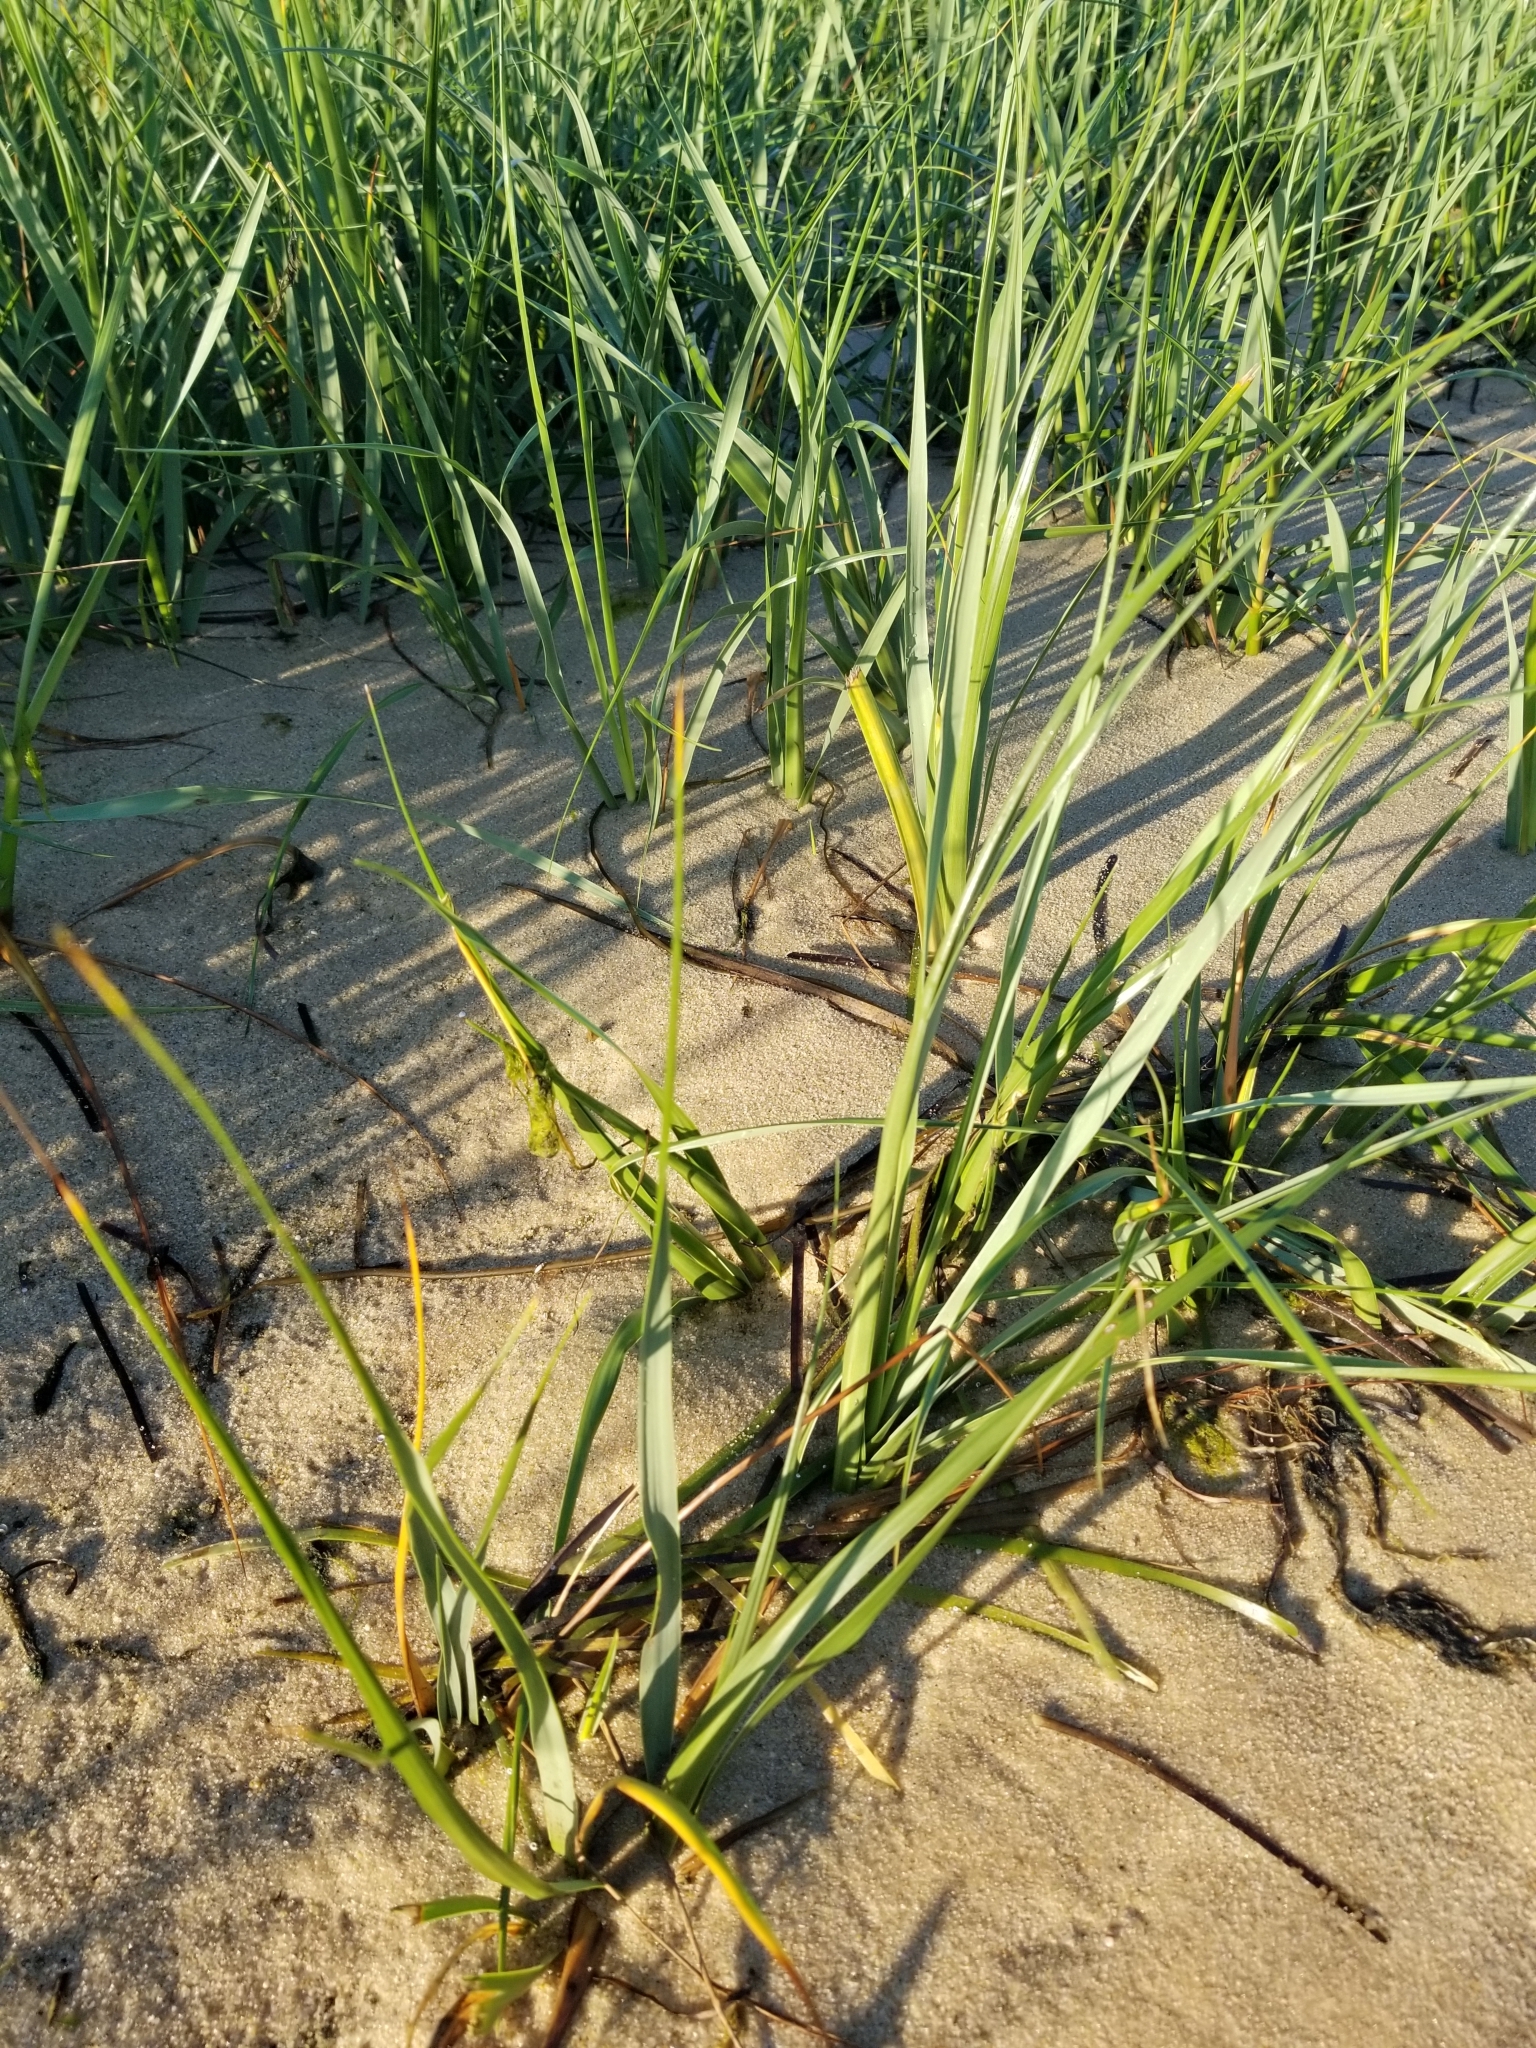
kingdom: Plantae
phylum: Tracheophyta
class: Liliopsida
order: Poales
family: Poaceae
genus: Calamagrostis
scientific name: Calamagrostis breviligulata
